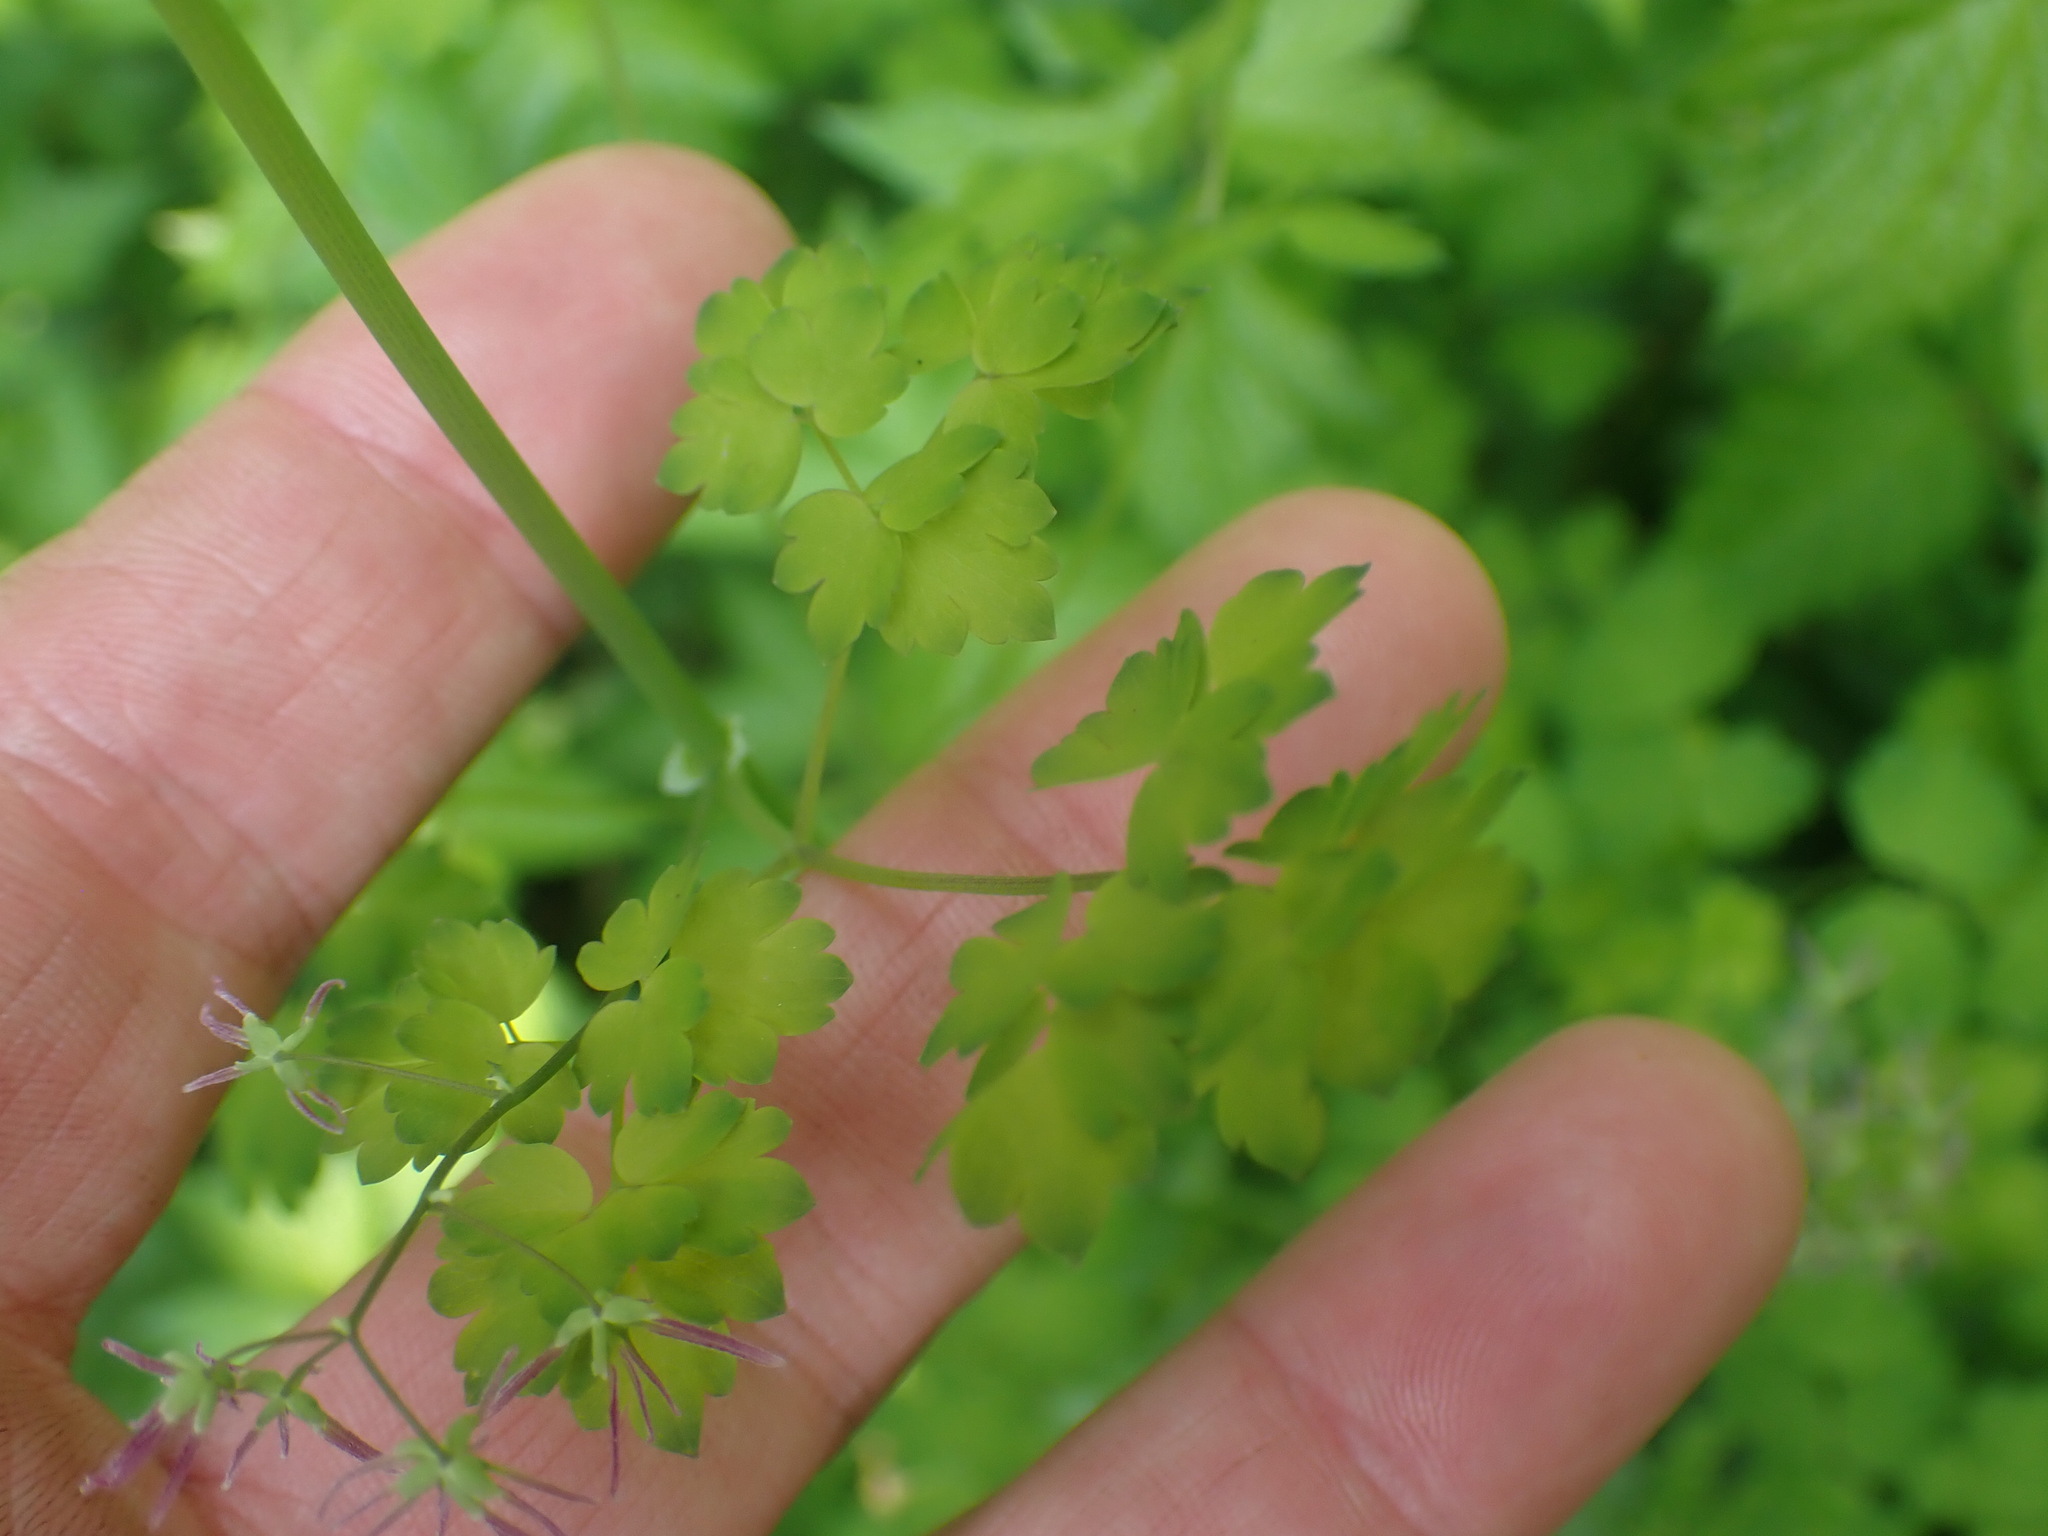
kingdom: Plantae
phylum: Tracheophyta
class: Magnoliopsida
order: Ranunculales
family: Ranunculaceae
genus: Thalictrum
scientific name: Thalictrum occidentale
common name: Western meadow-rue
